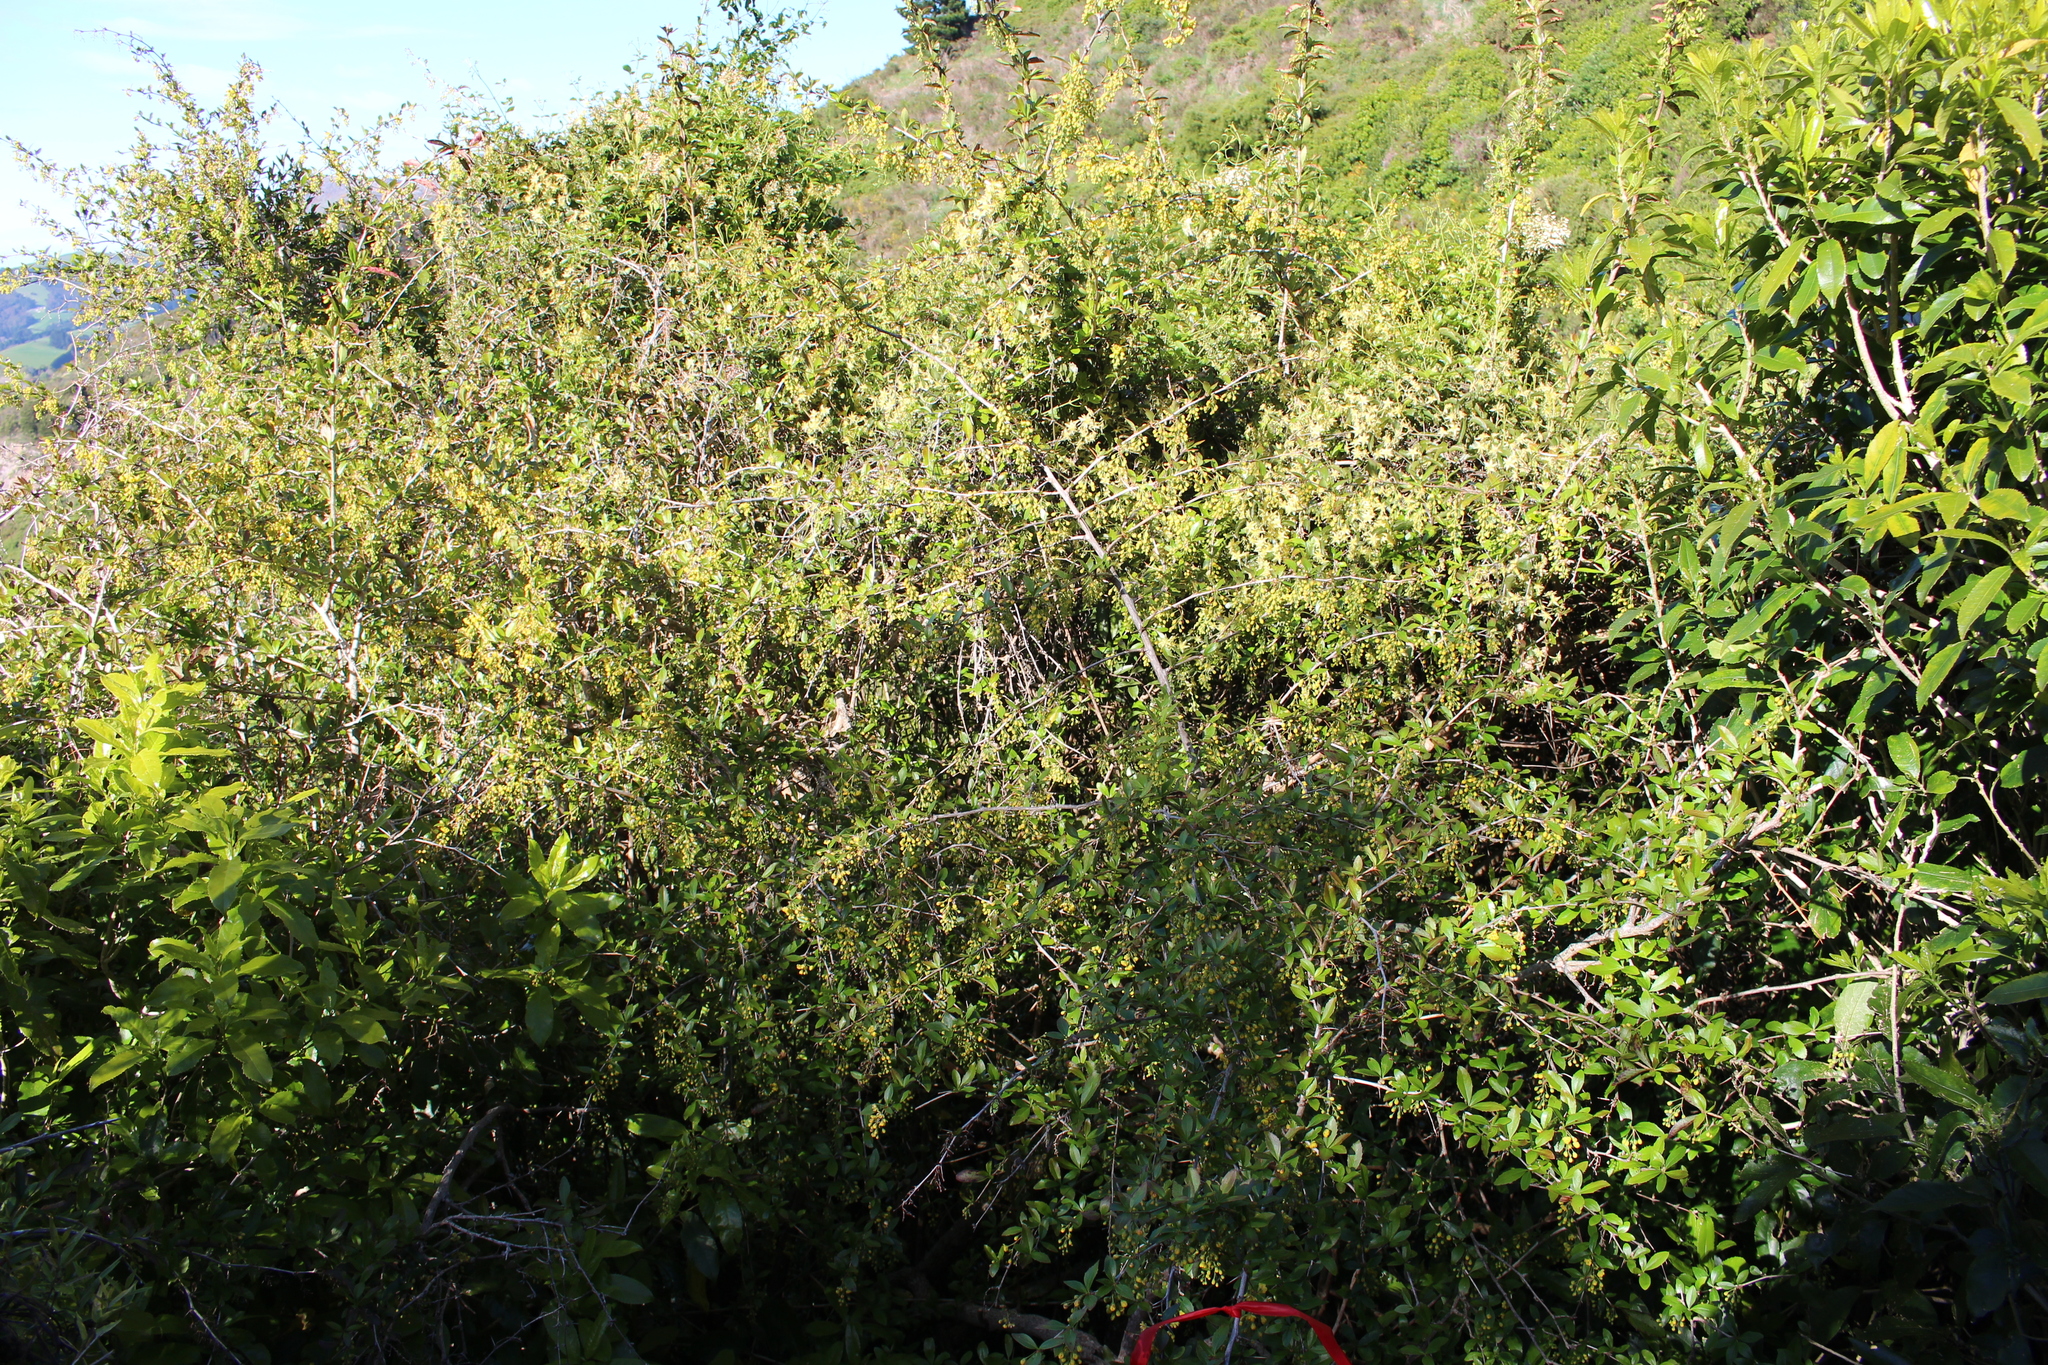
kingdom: Plantae
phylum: Tracheophyta
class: Magnoliopsida
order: Ranunculales
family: Berberidaceae
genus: Berberis
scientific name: Berberis glaucocarpa
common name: Great barberry
